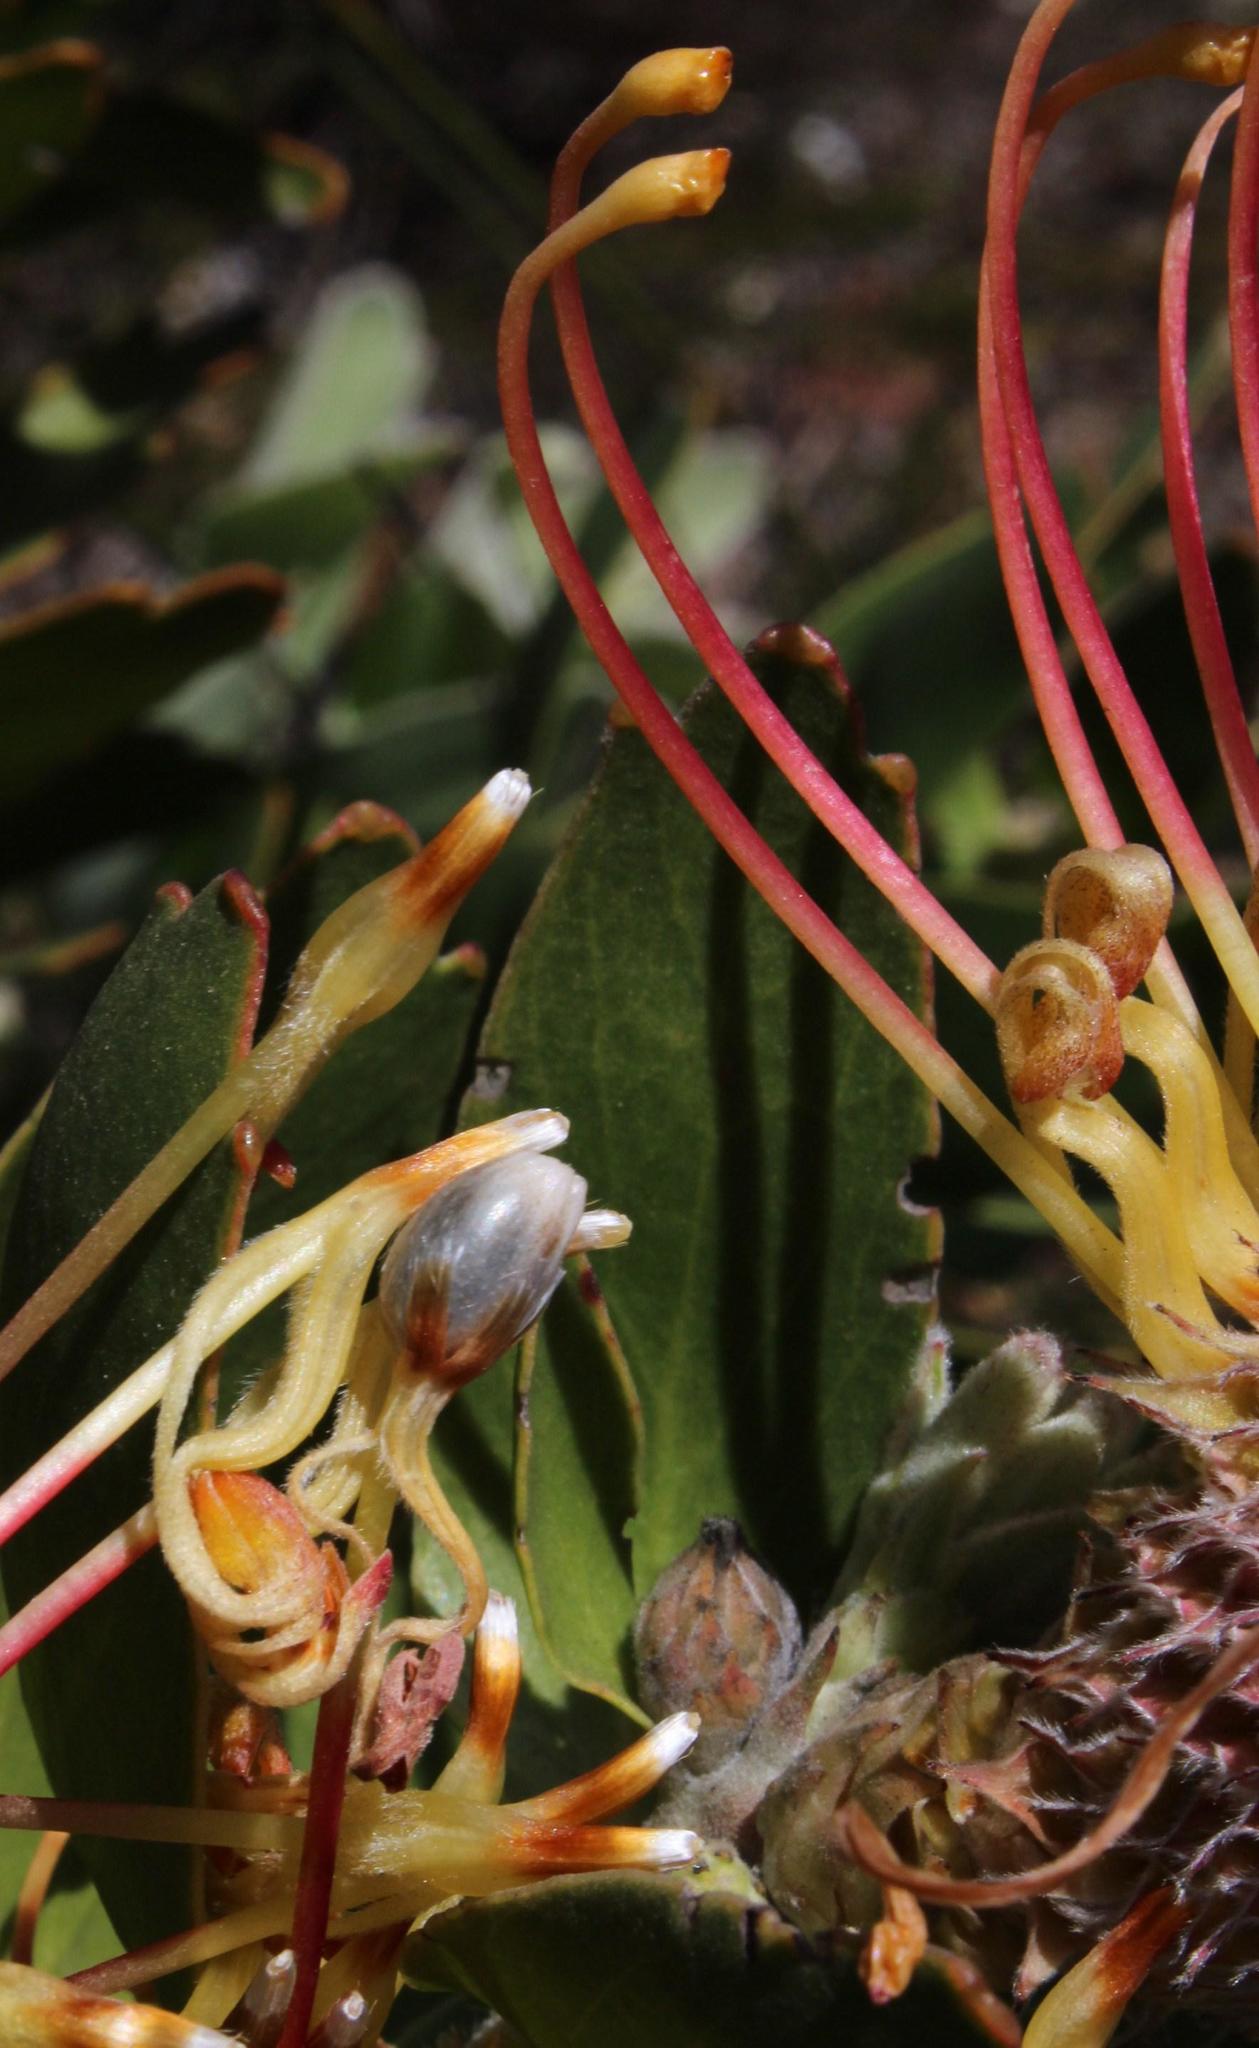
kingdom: Plantae
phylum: Tracheophyta
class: Magnoliopsida
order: Proteales
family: Proteaceae
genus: Leucospermum
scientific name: Leucospermum cordifolium
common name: Red pincushion-protea
